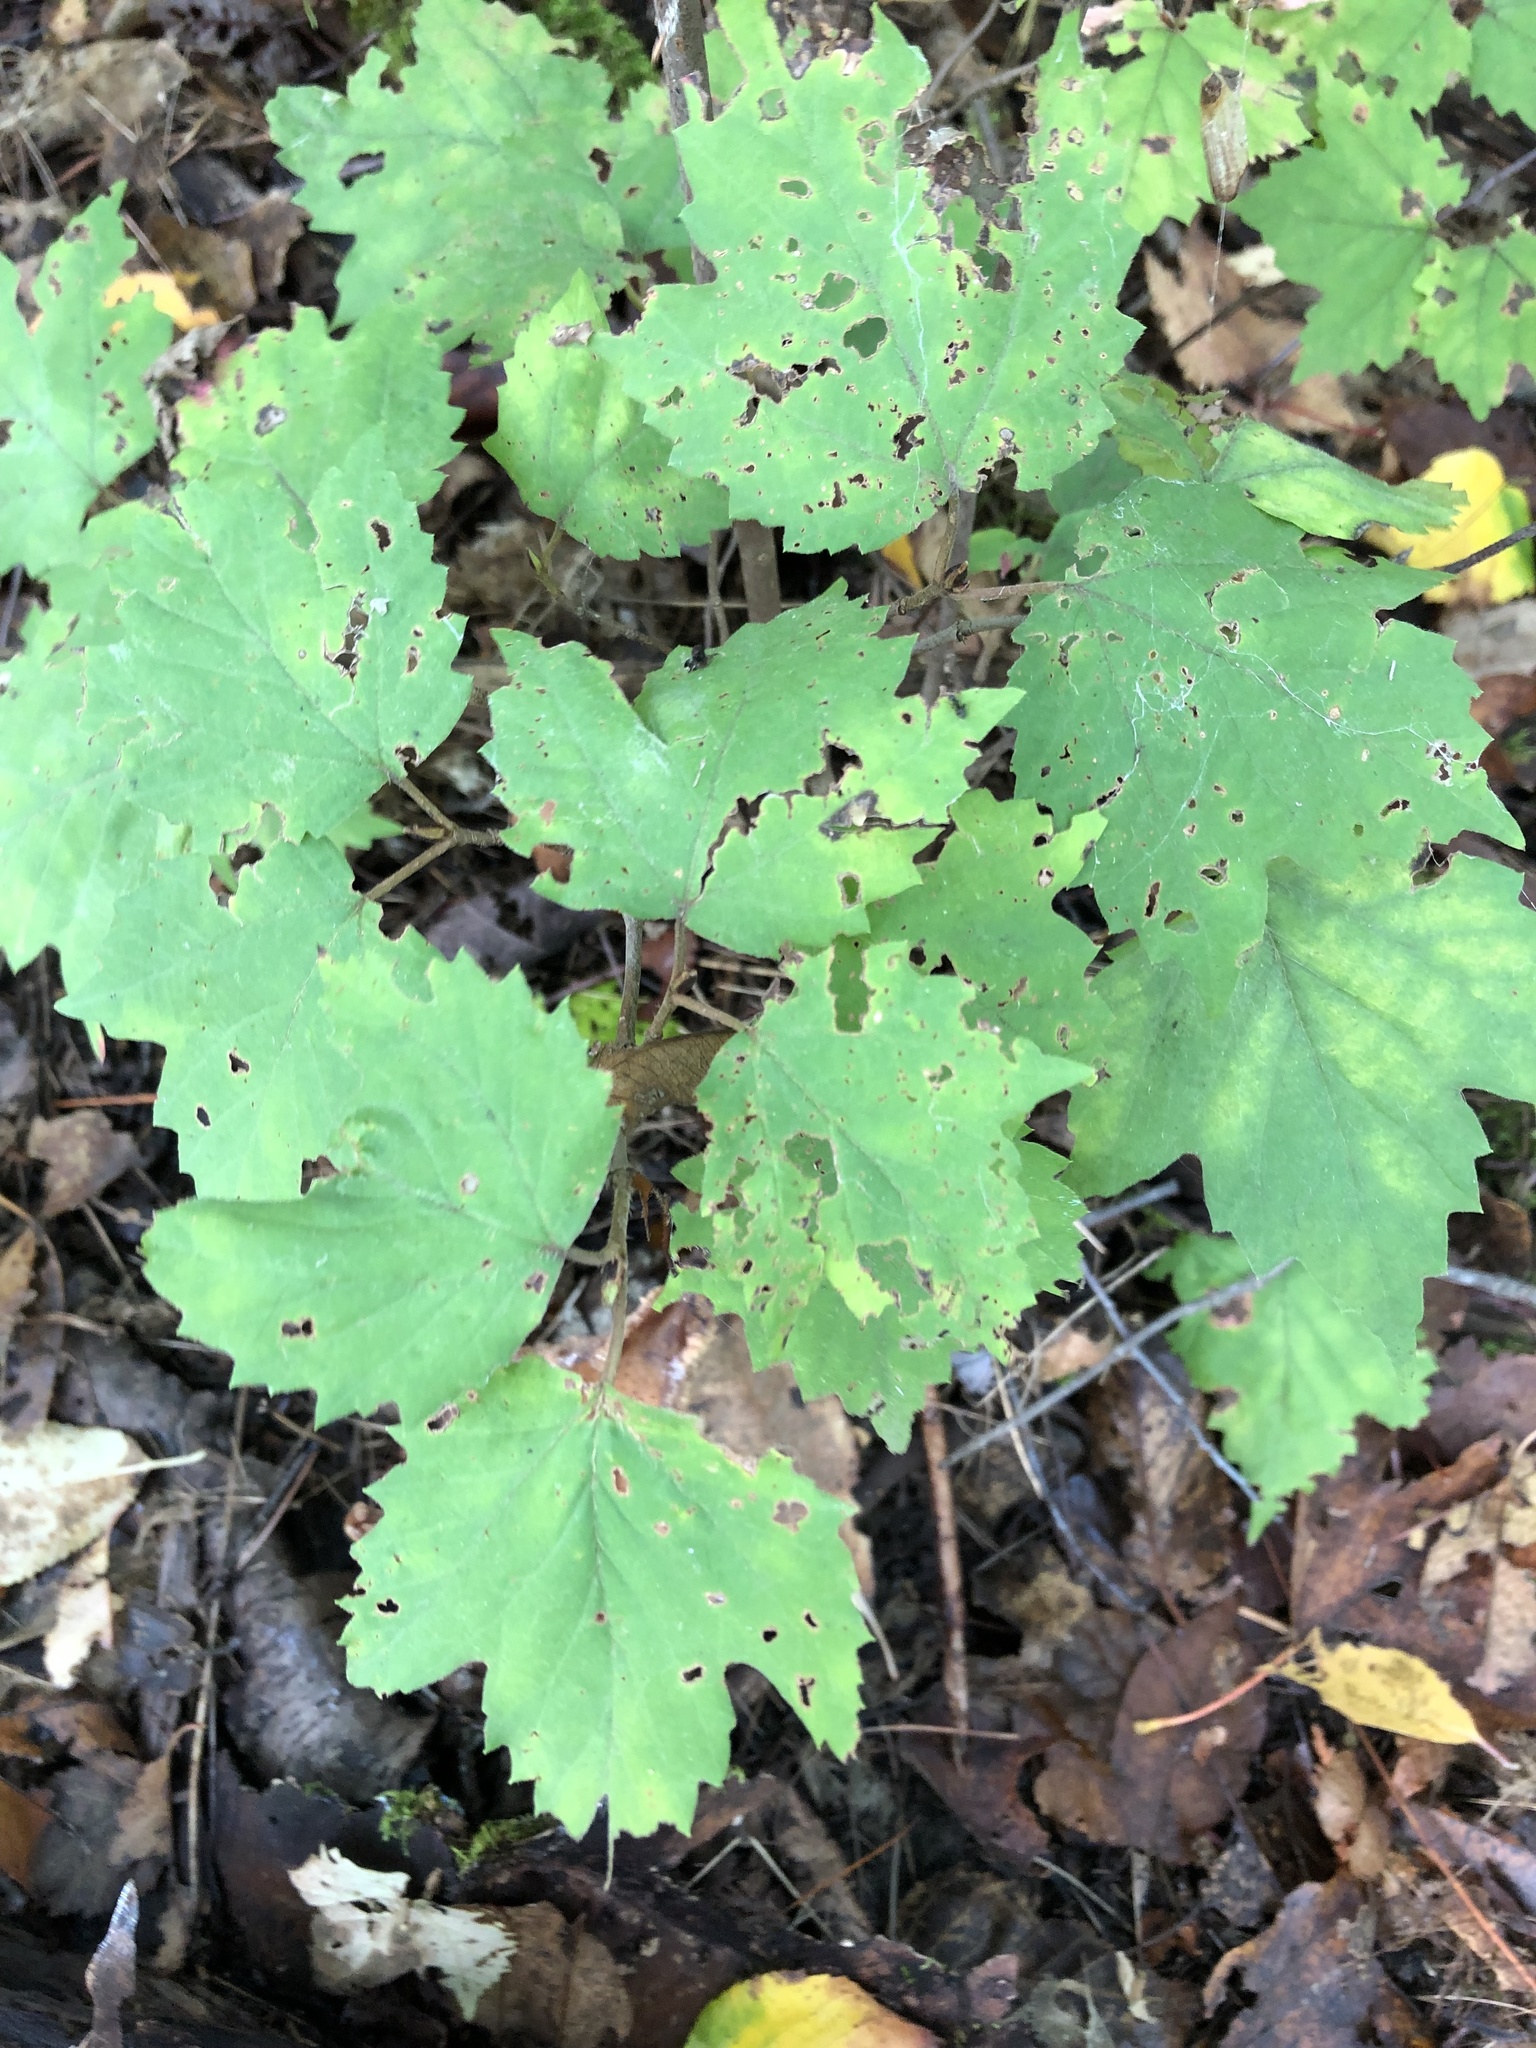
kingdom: Plantae
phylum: Tracheophyta
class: Magnoliopsida
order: Dipsacales
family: Viburnaceae
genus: Viburnum
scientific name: Viburnum acerifolium
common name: Dockmackie
